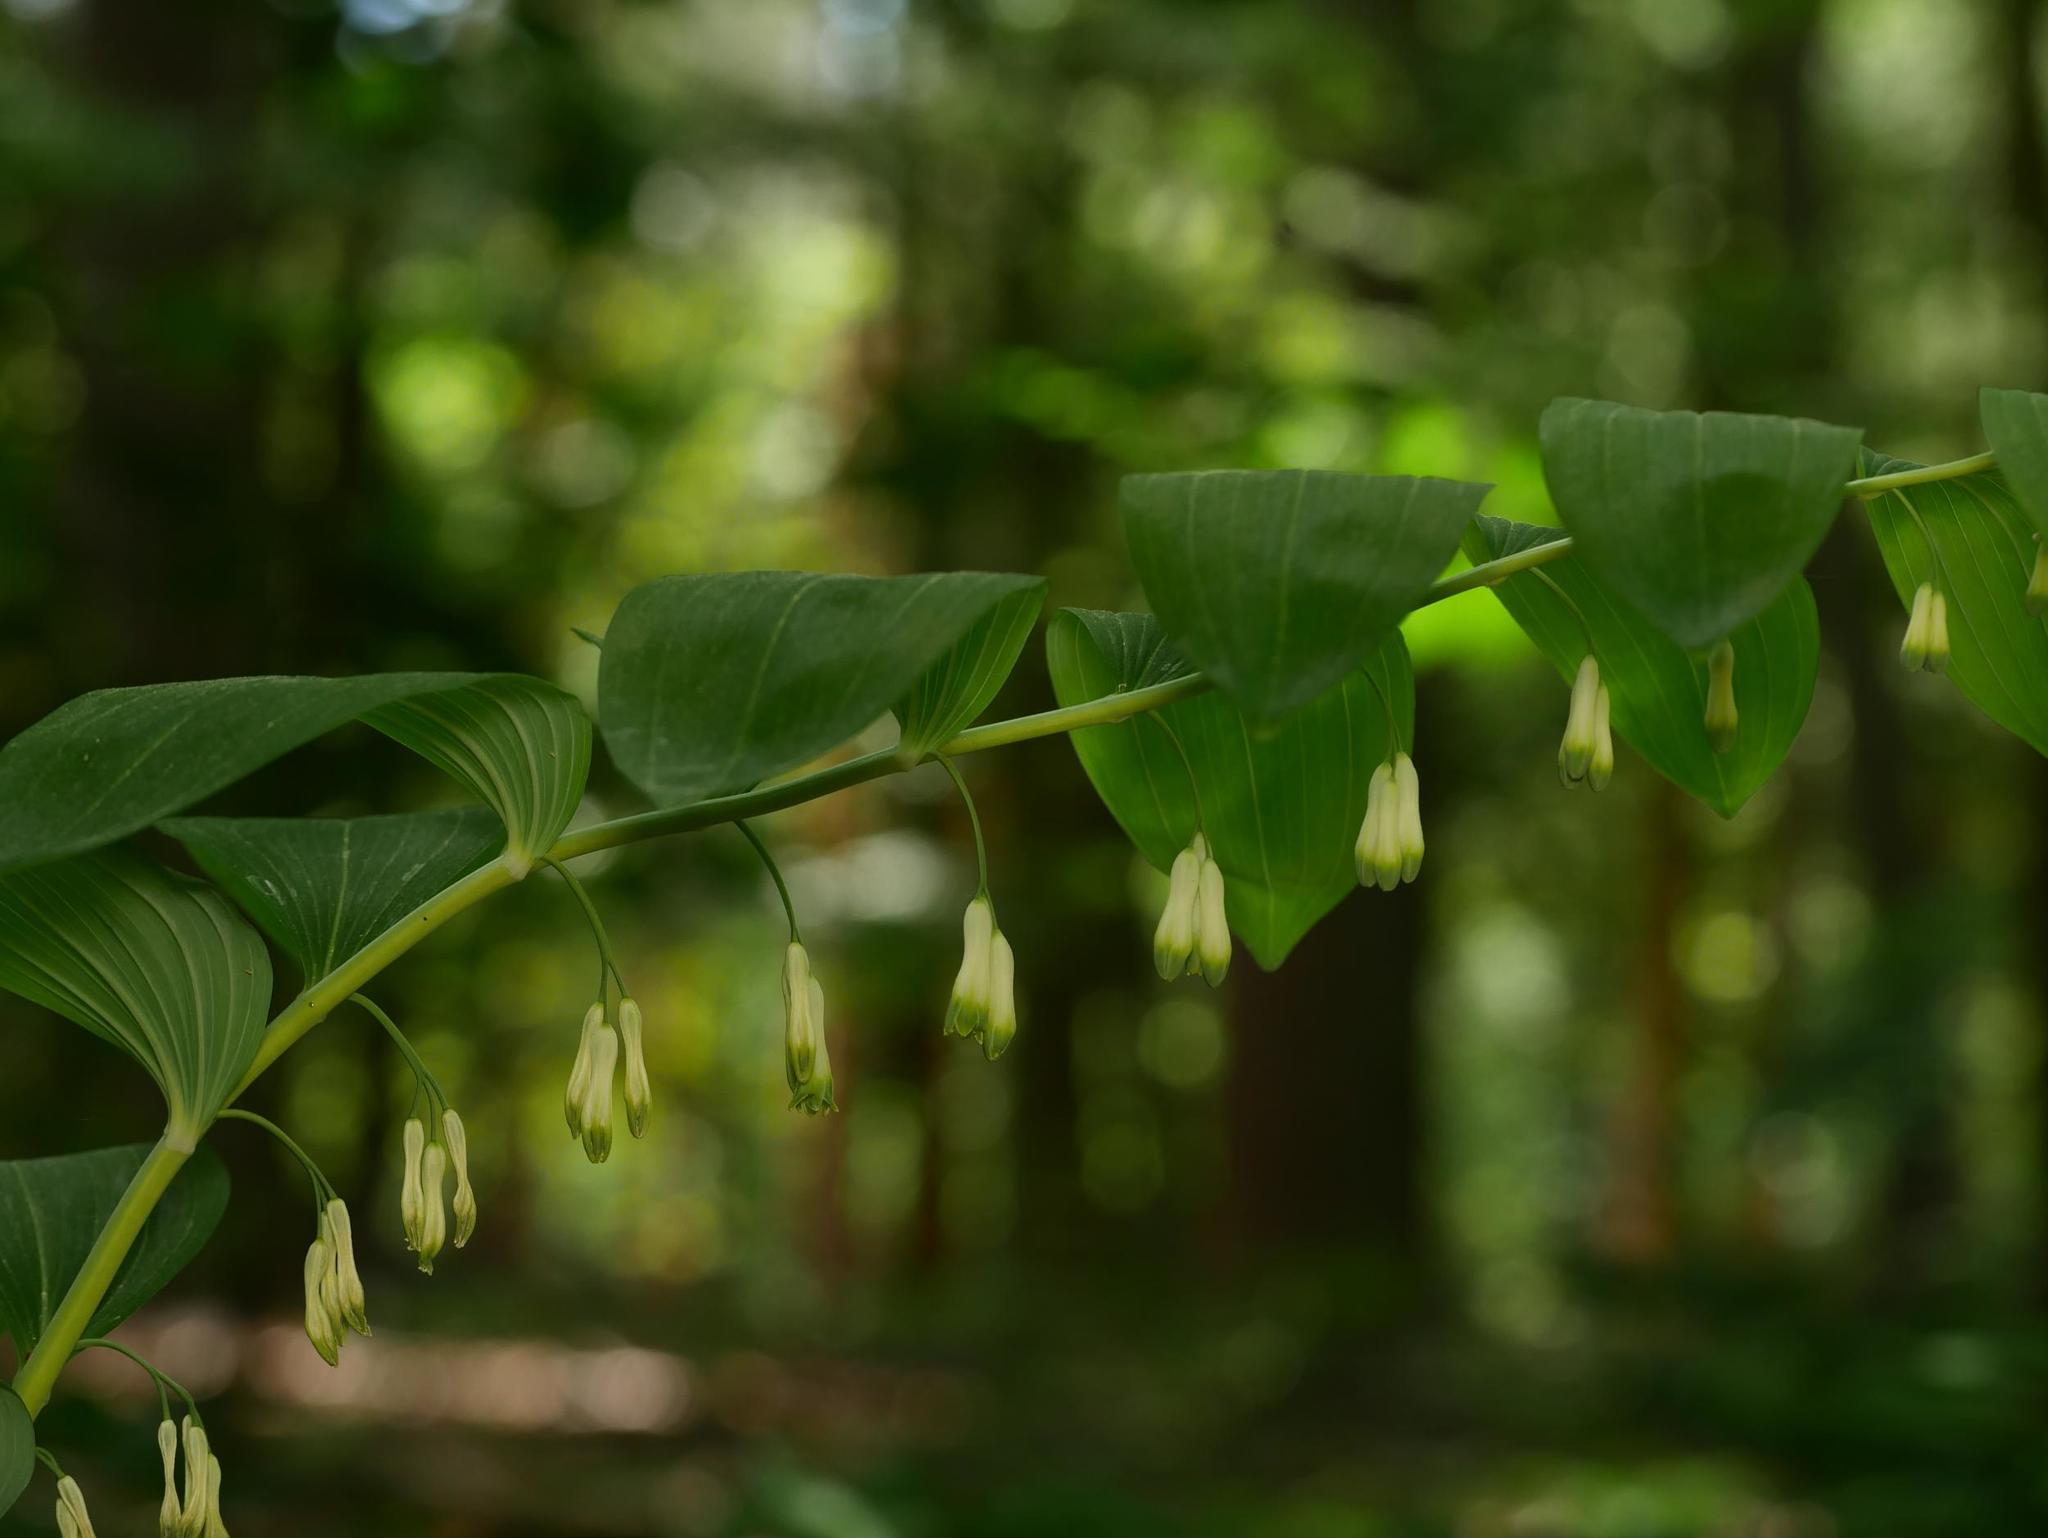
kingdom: Plantae
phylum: Tracheophyta
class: Liliopsida
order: Asparagales
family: Asparagaceae
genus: Polygonatum
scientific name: Polygonatum multiflorum
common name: Solomon's-seal
